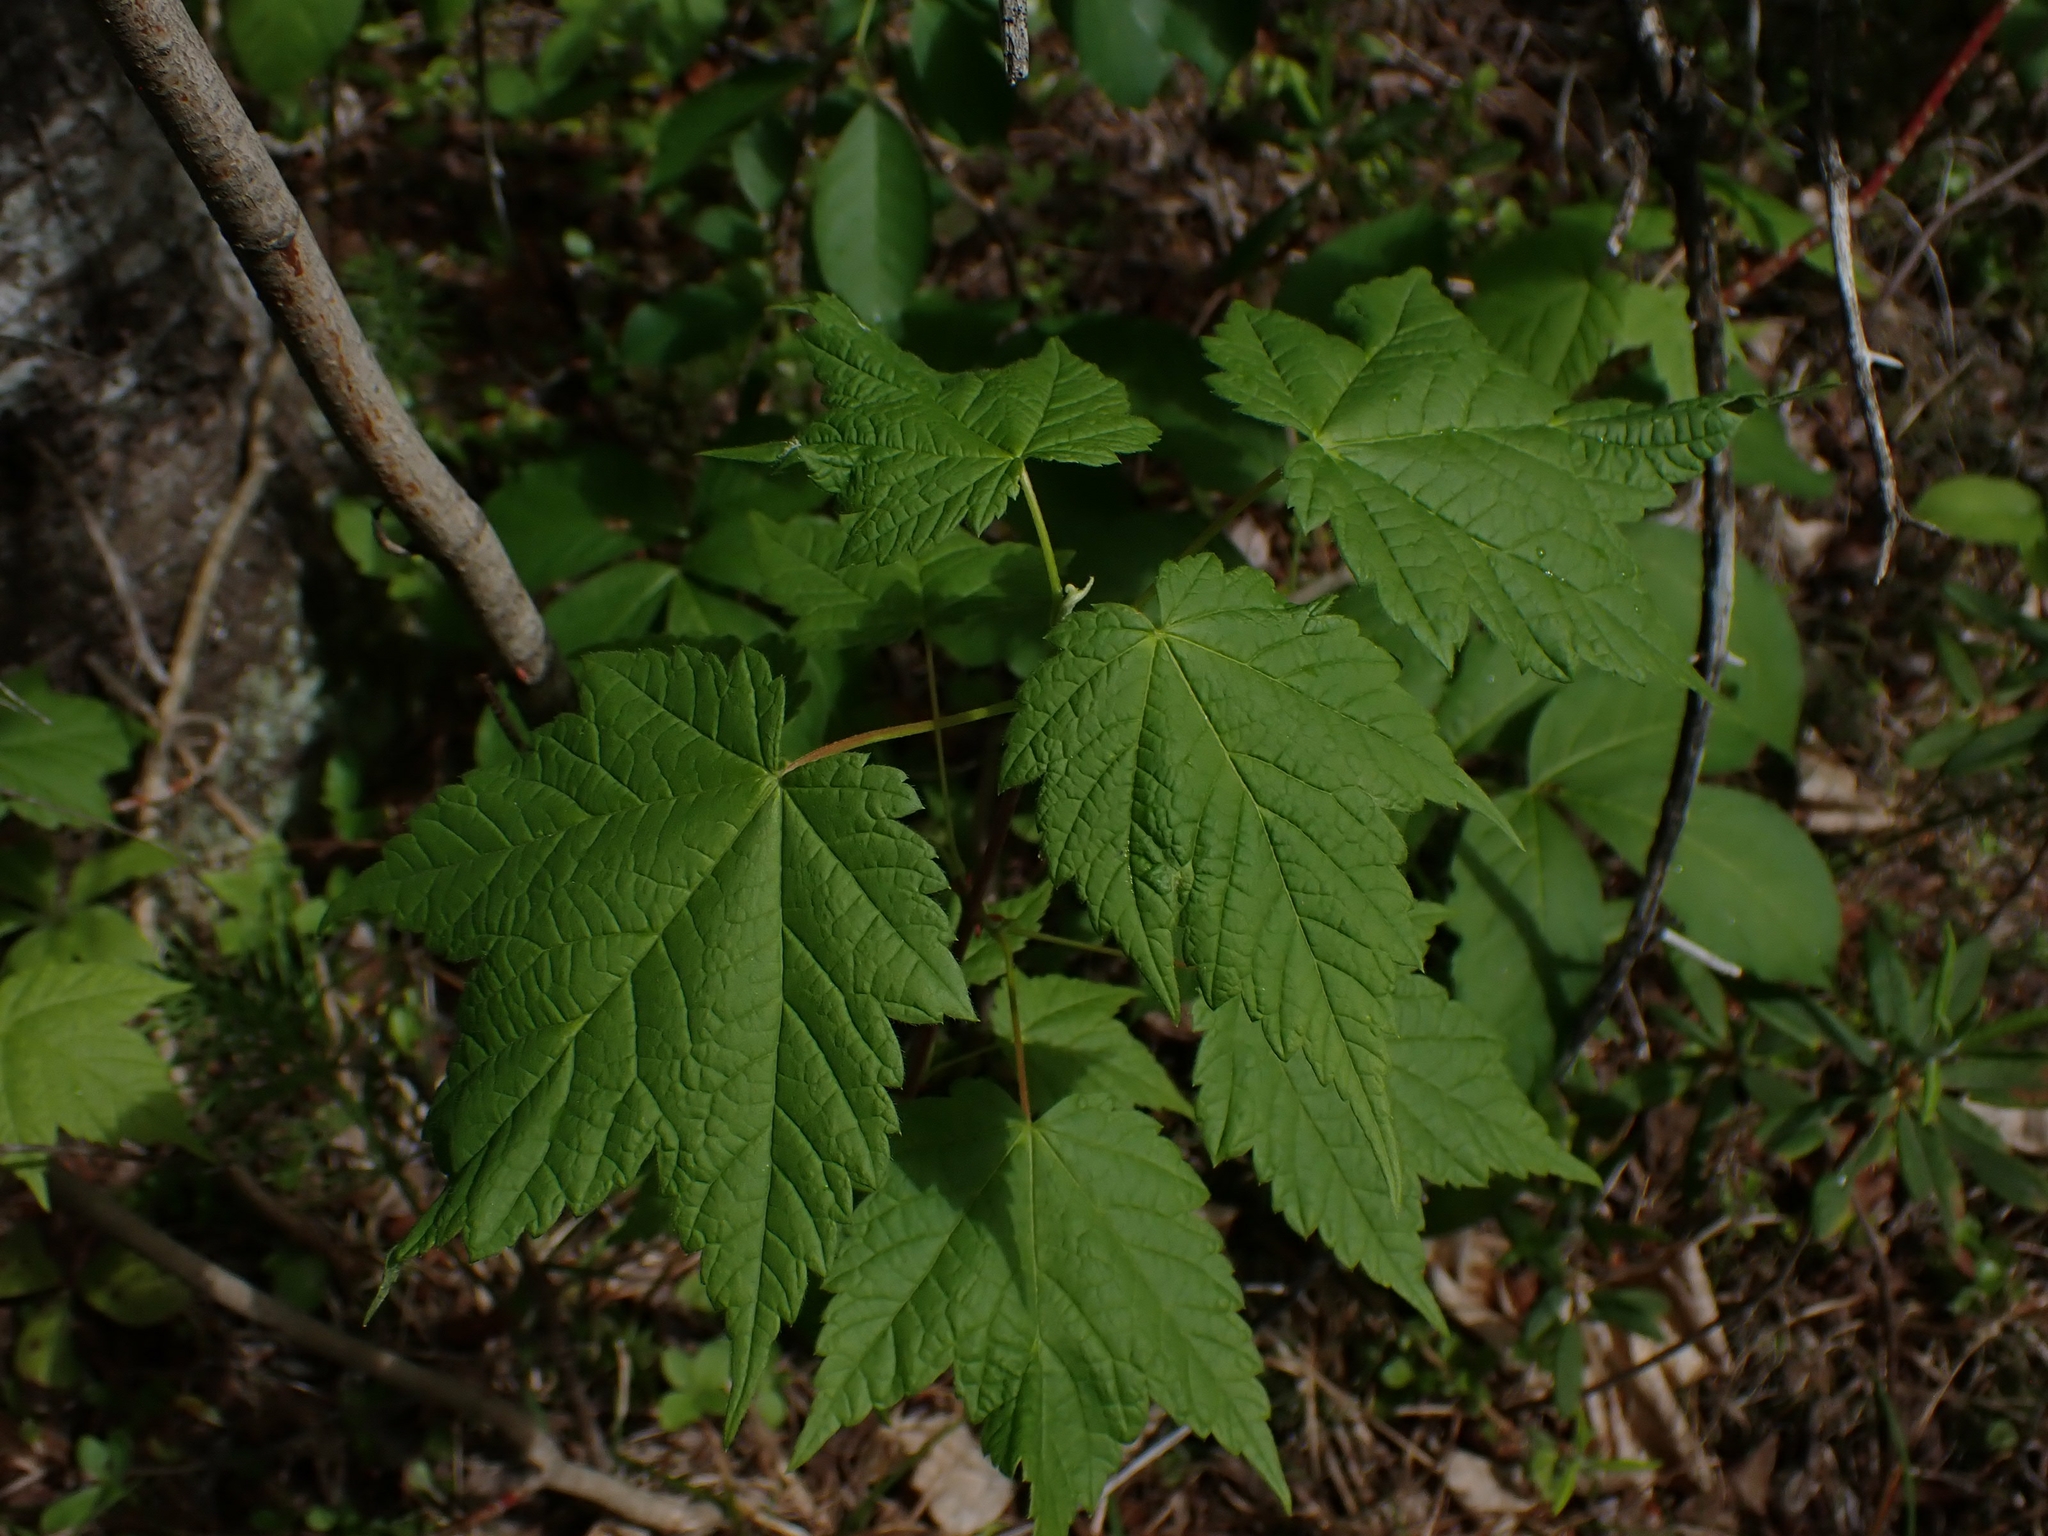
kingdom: Plantae
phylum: Tracheophyta
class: Magnoliopsida
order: Sapindales
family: Sapindaceae
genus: Acer
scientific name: Acer spicatum
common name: Mountain maple
